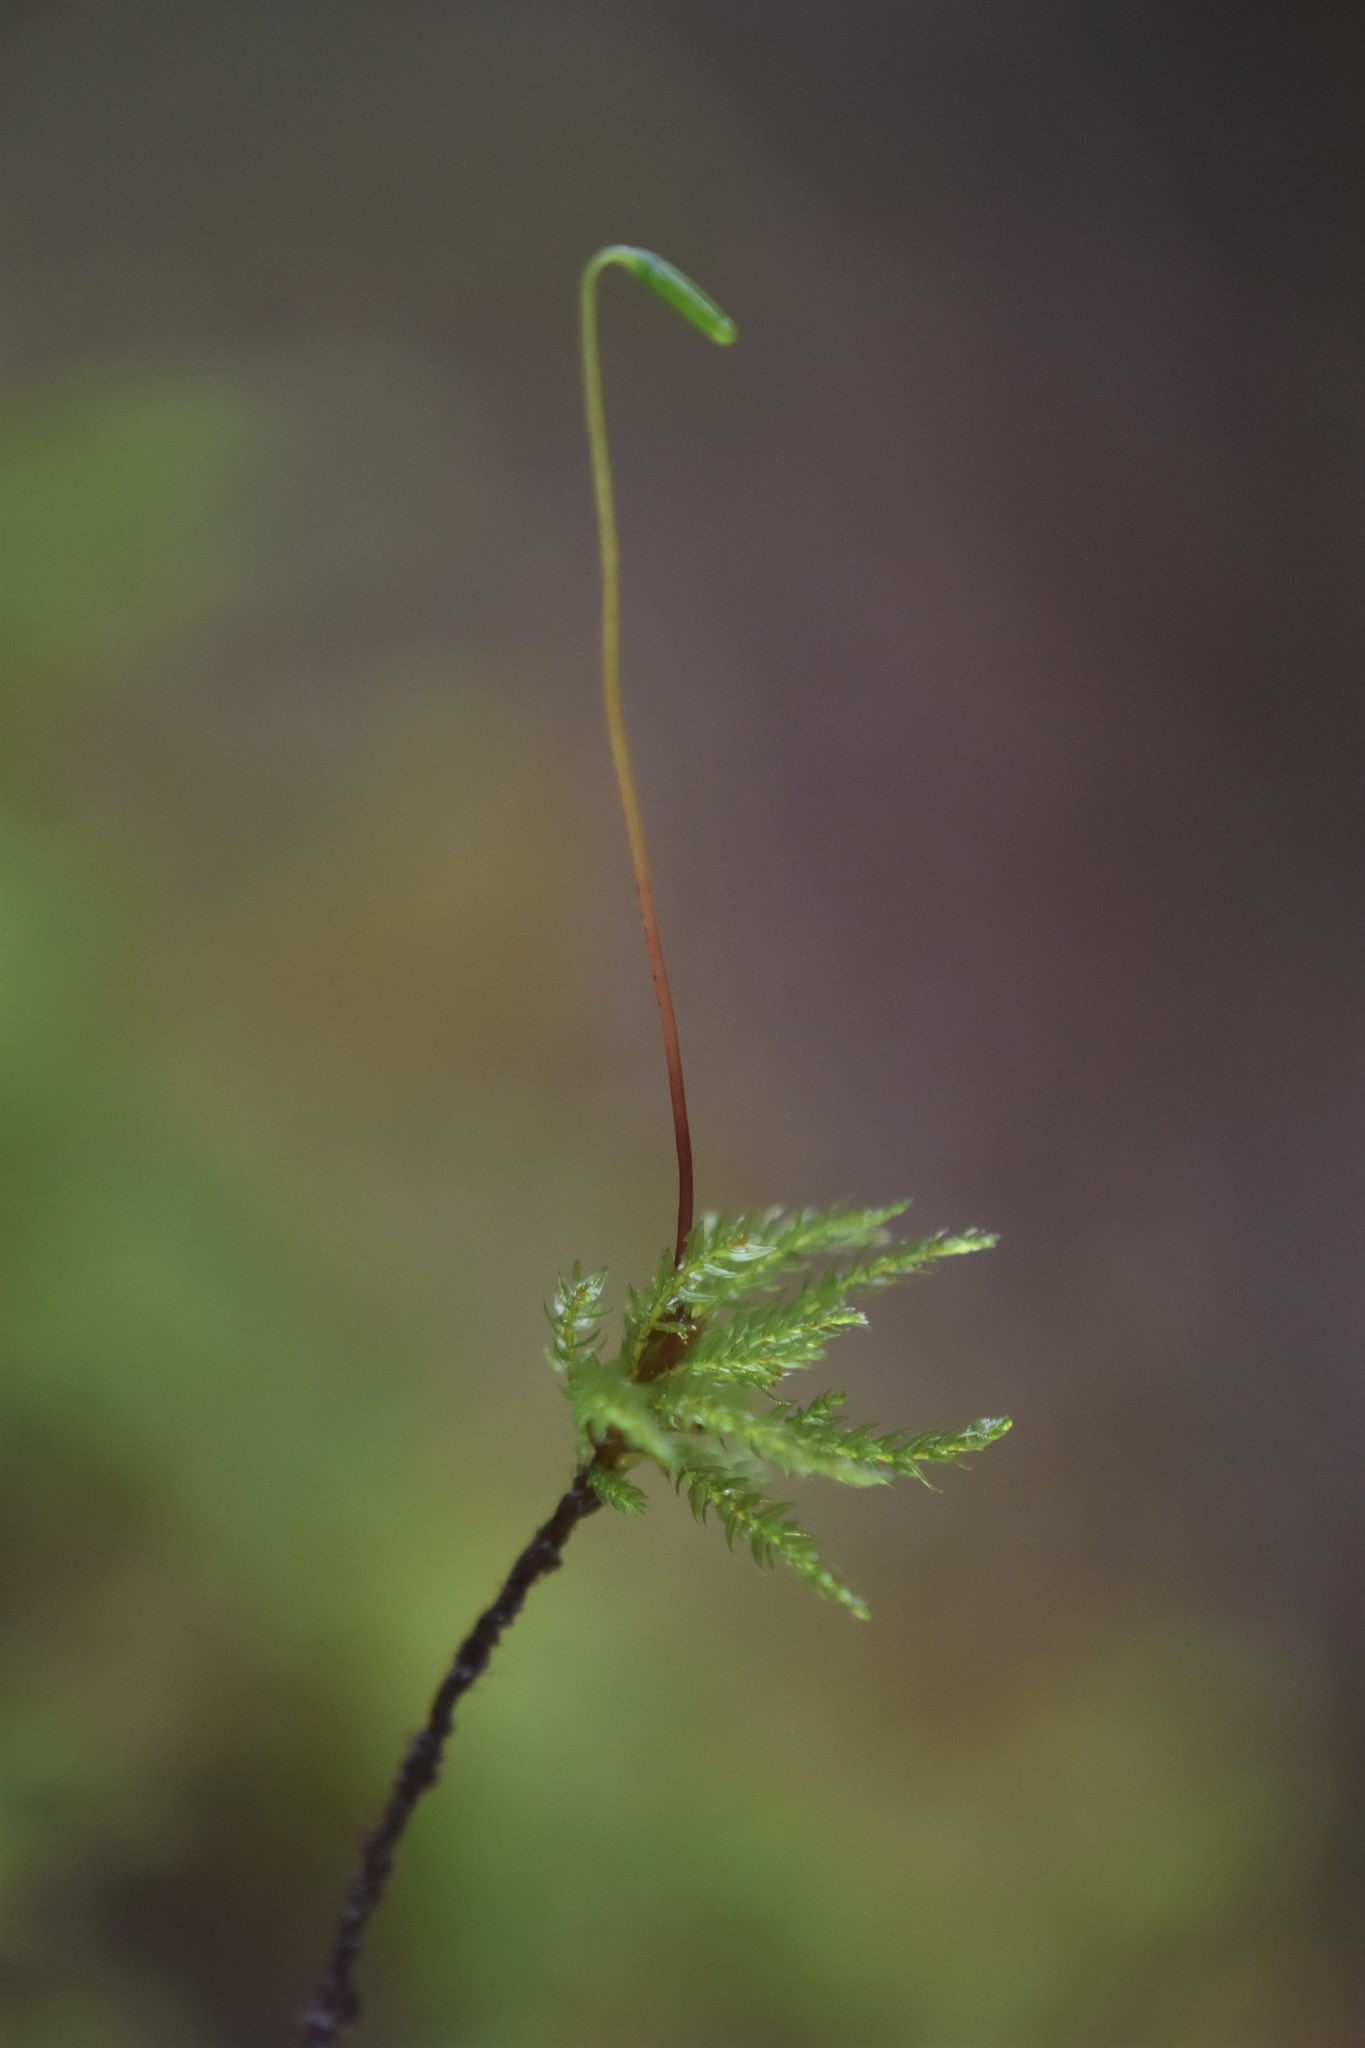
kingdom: Plantae
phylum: Bryophyta
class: Bryopsida
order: Bryales
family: Mniaceae
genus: Leucolepis
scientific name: Leucolepis acanthoneura
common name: Leucolepis umbrella moss
